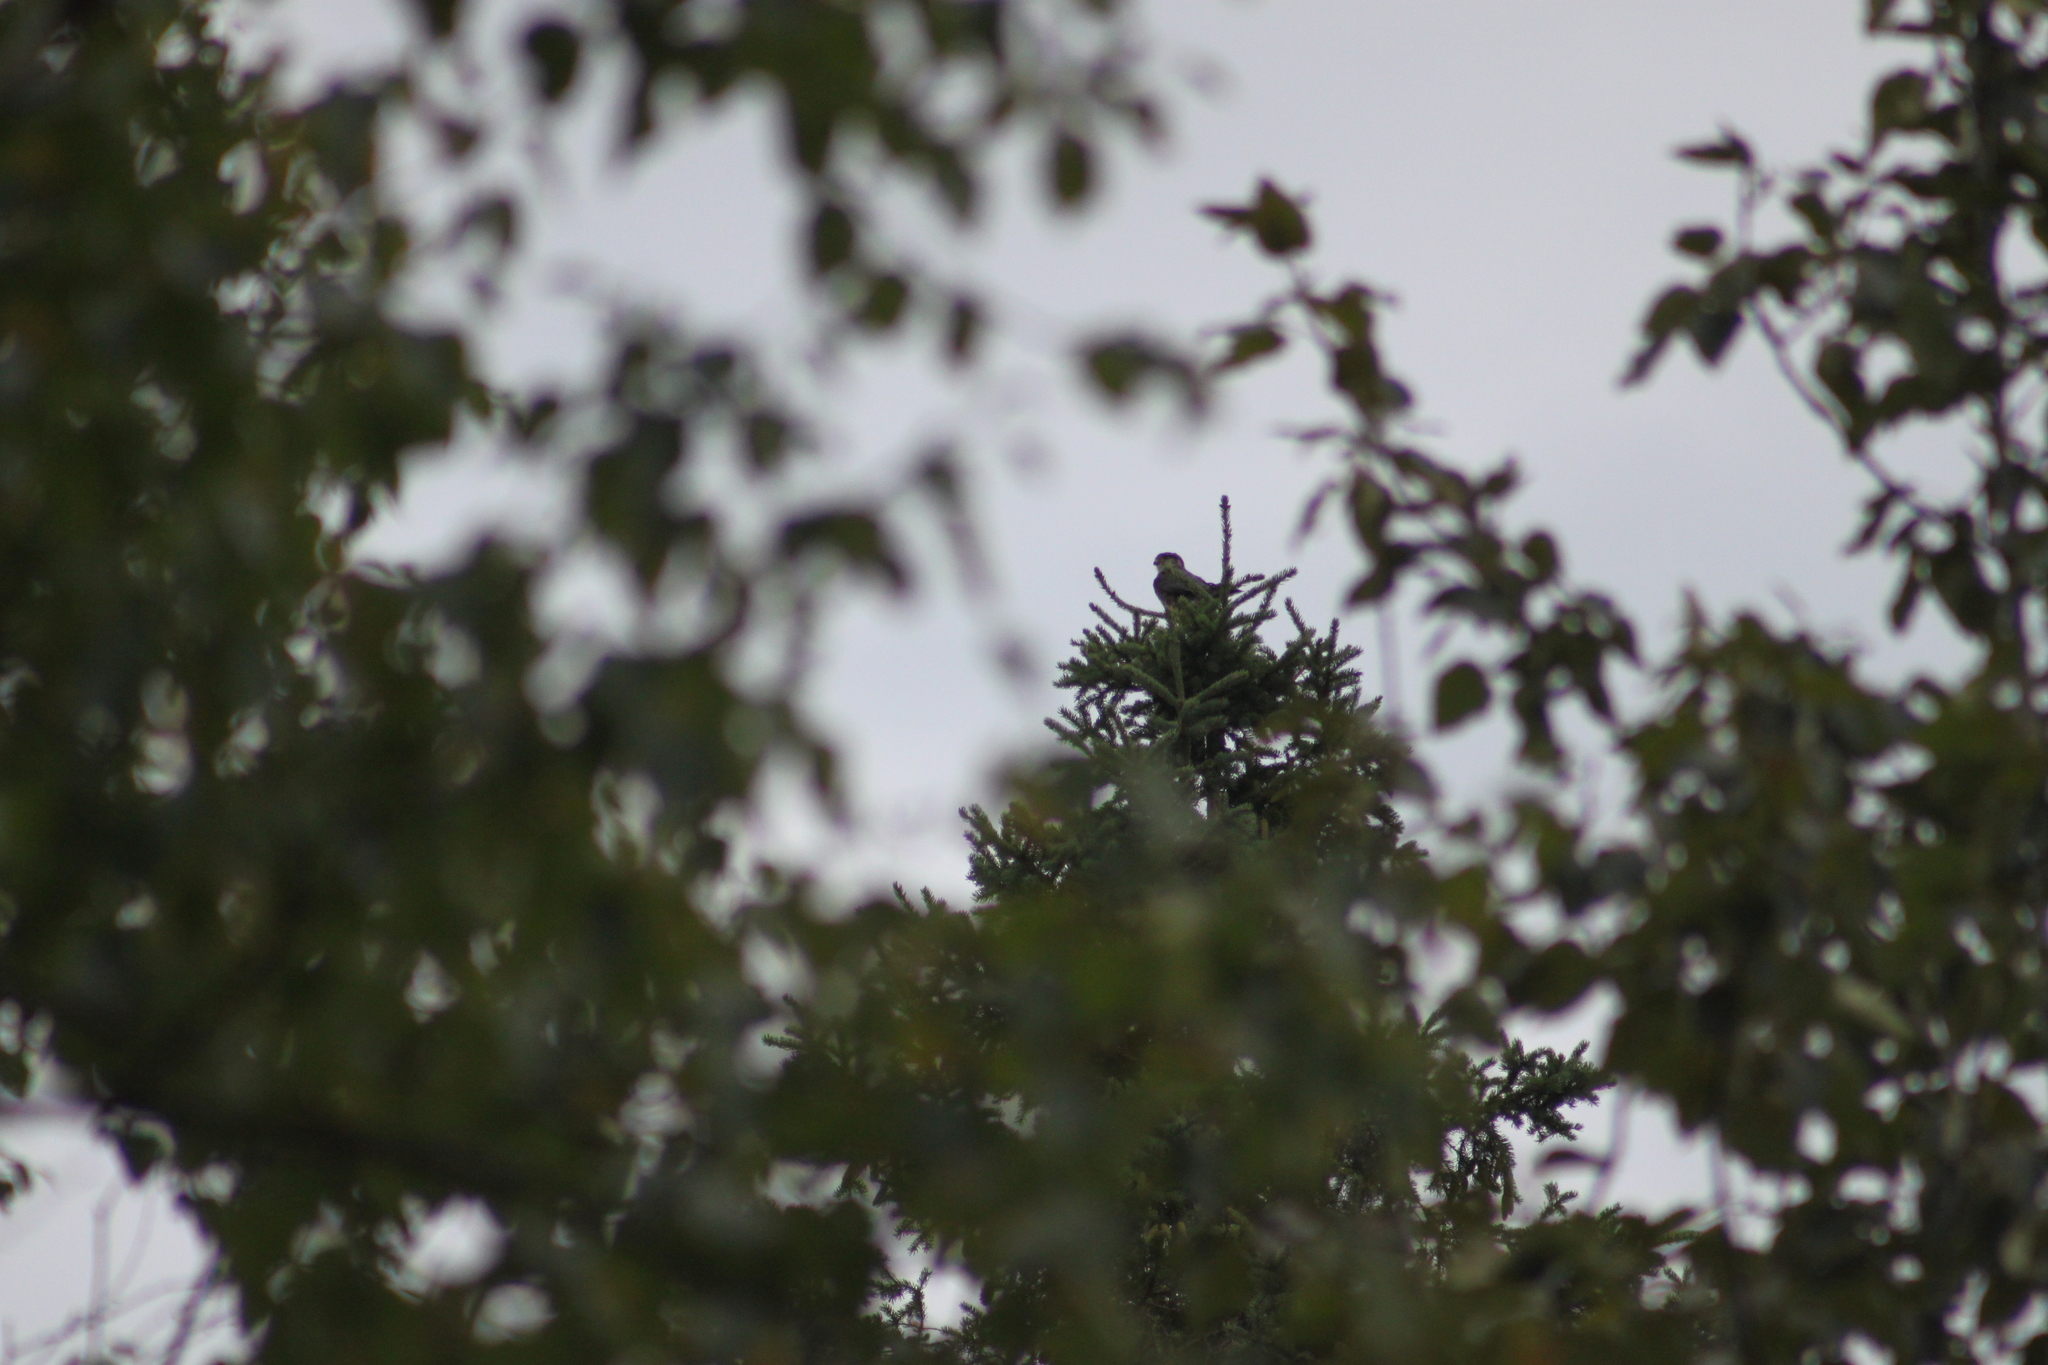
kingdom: Animalia
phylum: Chordata
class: Aves
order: Falconiformes
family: Falconidae
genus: Falco
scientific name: Falco columbarius
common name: Merlin
